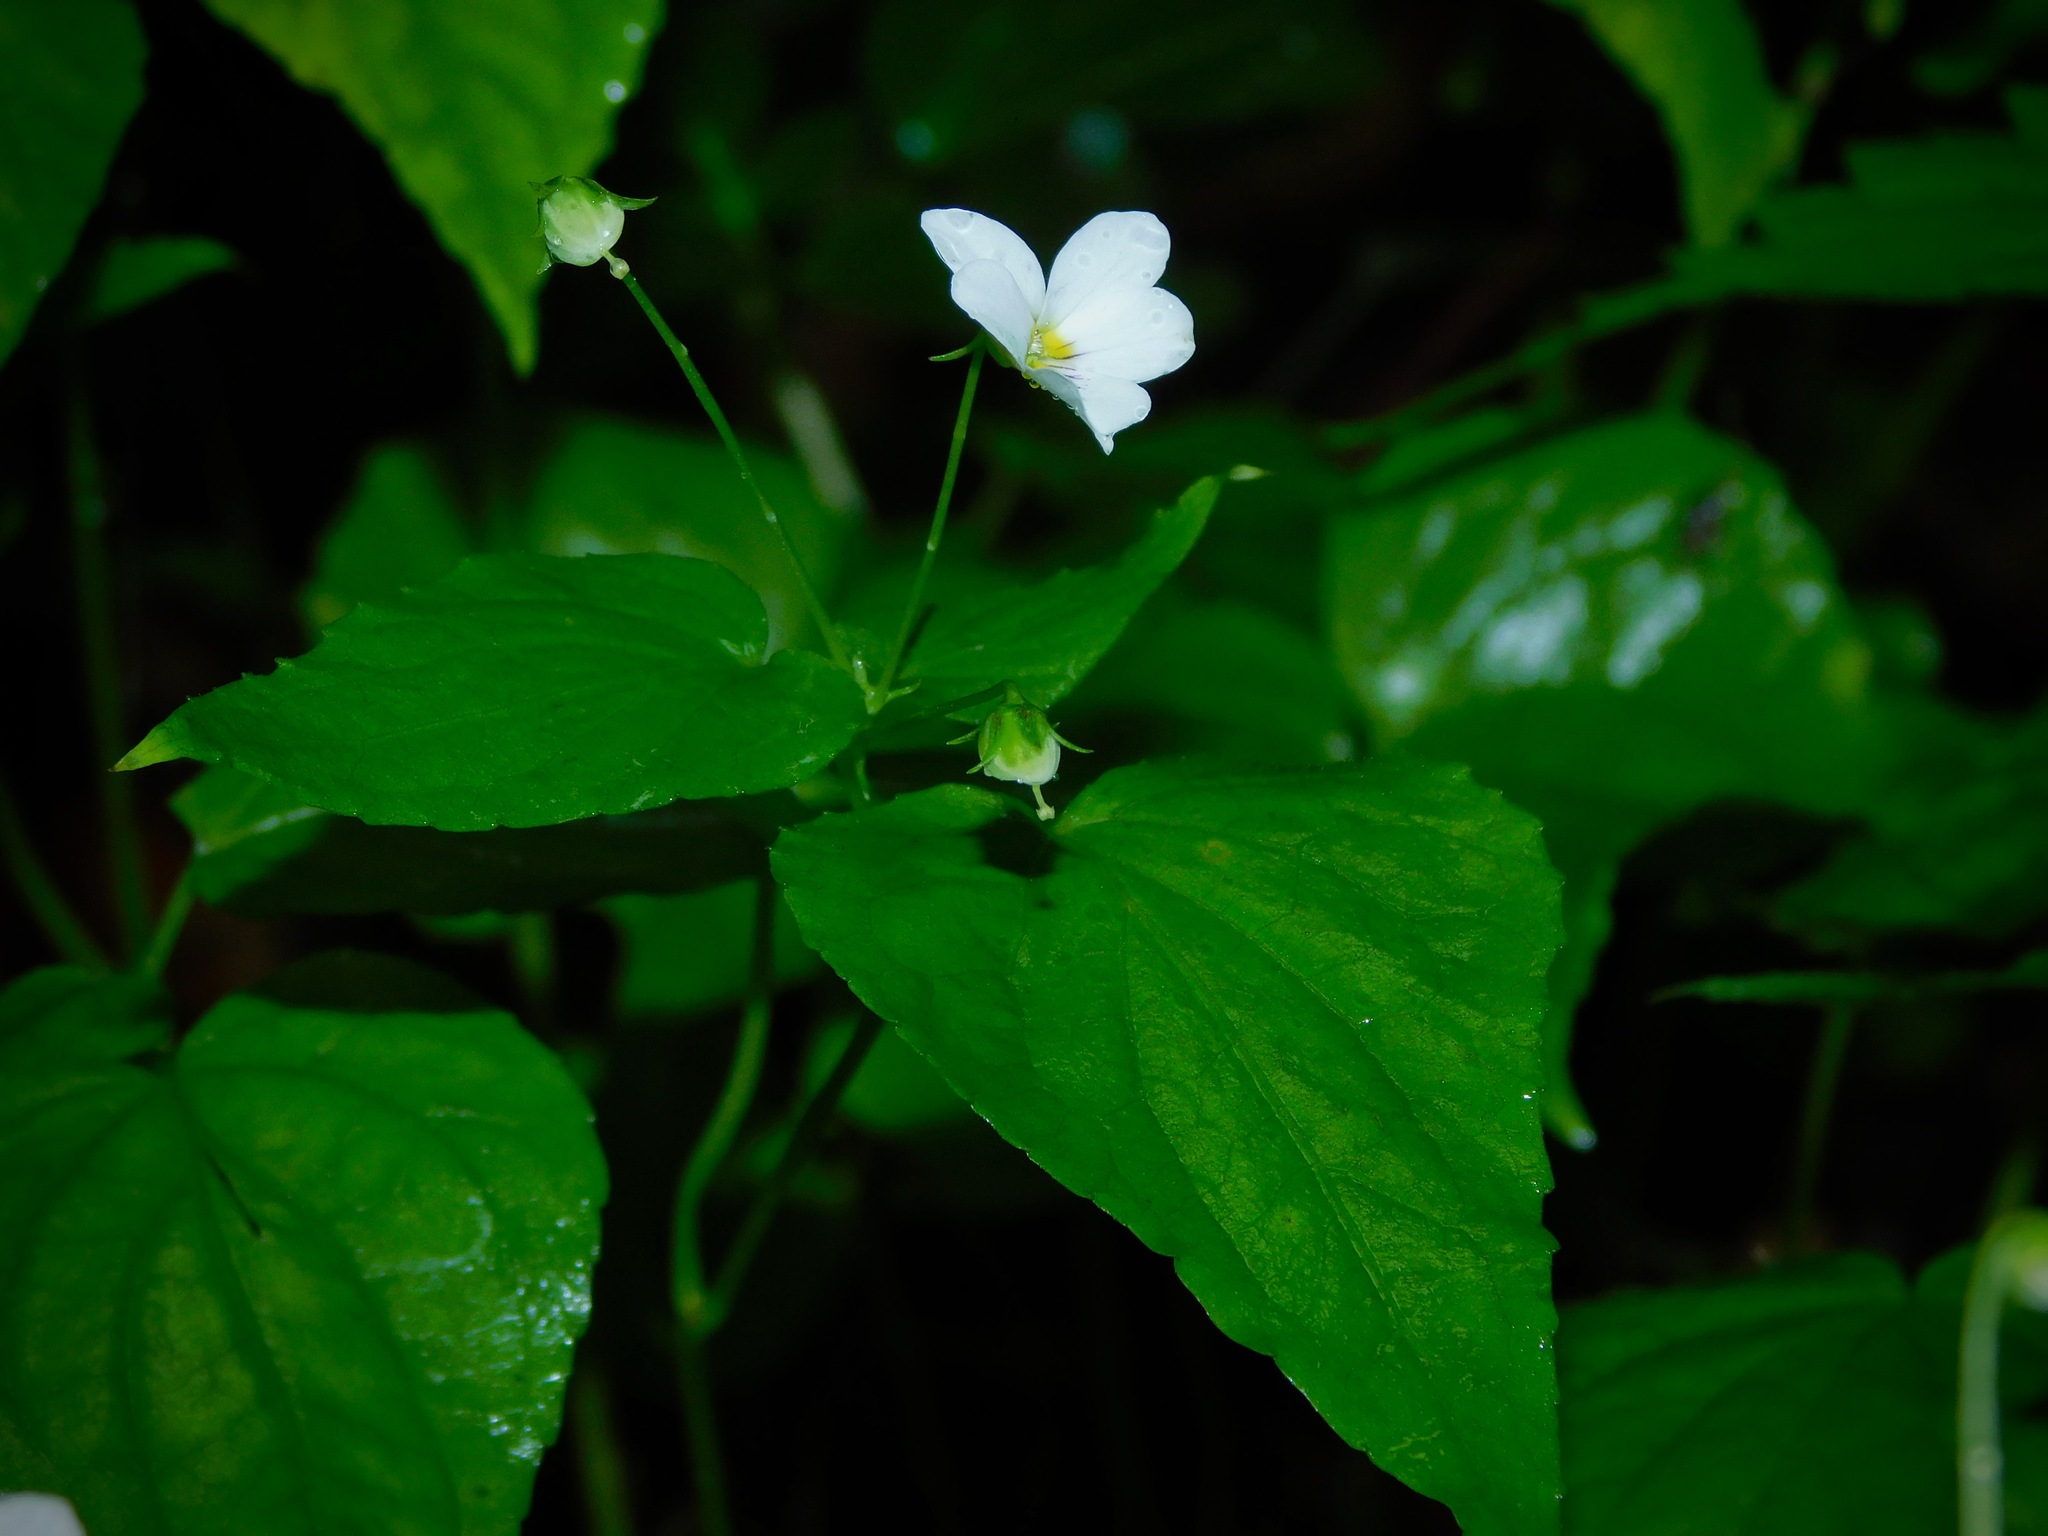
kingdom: Plantae
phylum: Tracheophyta
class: Magnoliopsida
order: Malpighiales
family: Violaceae
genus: Viola
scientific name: Viola canadensis
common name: Canada violet
